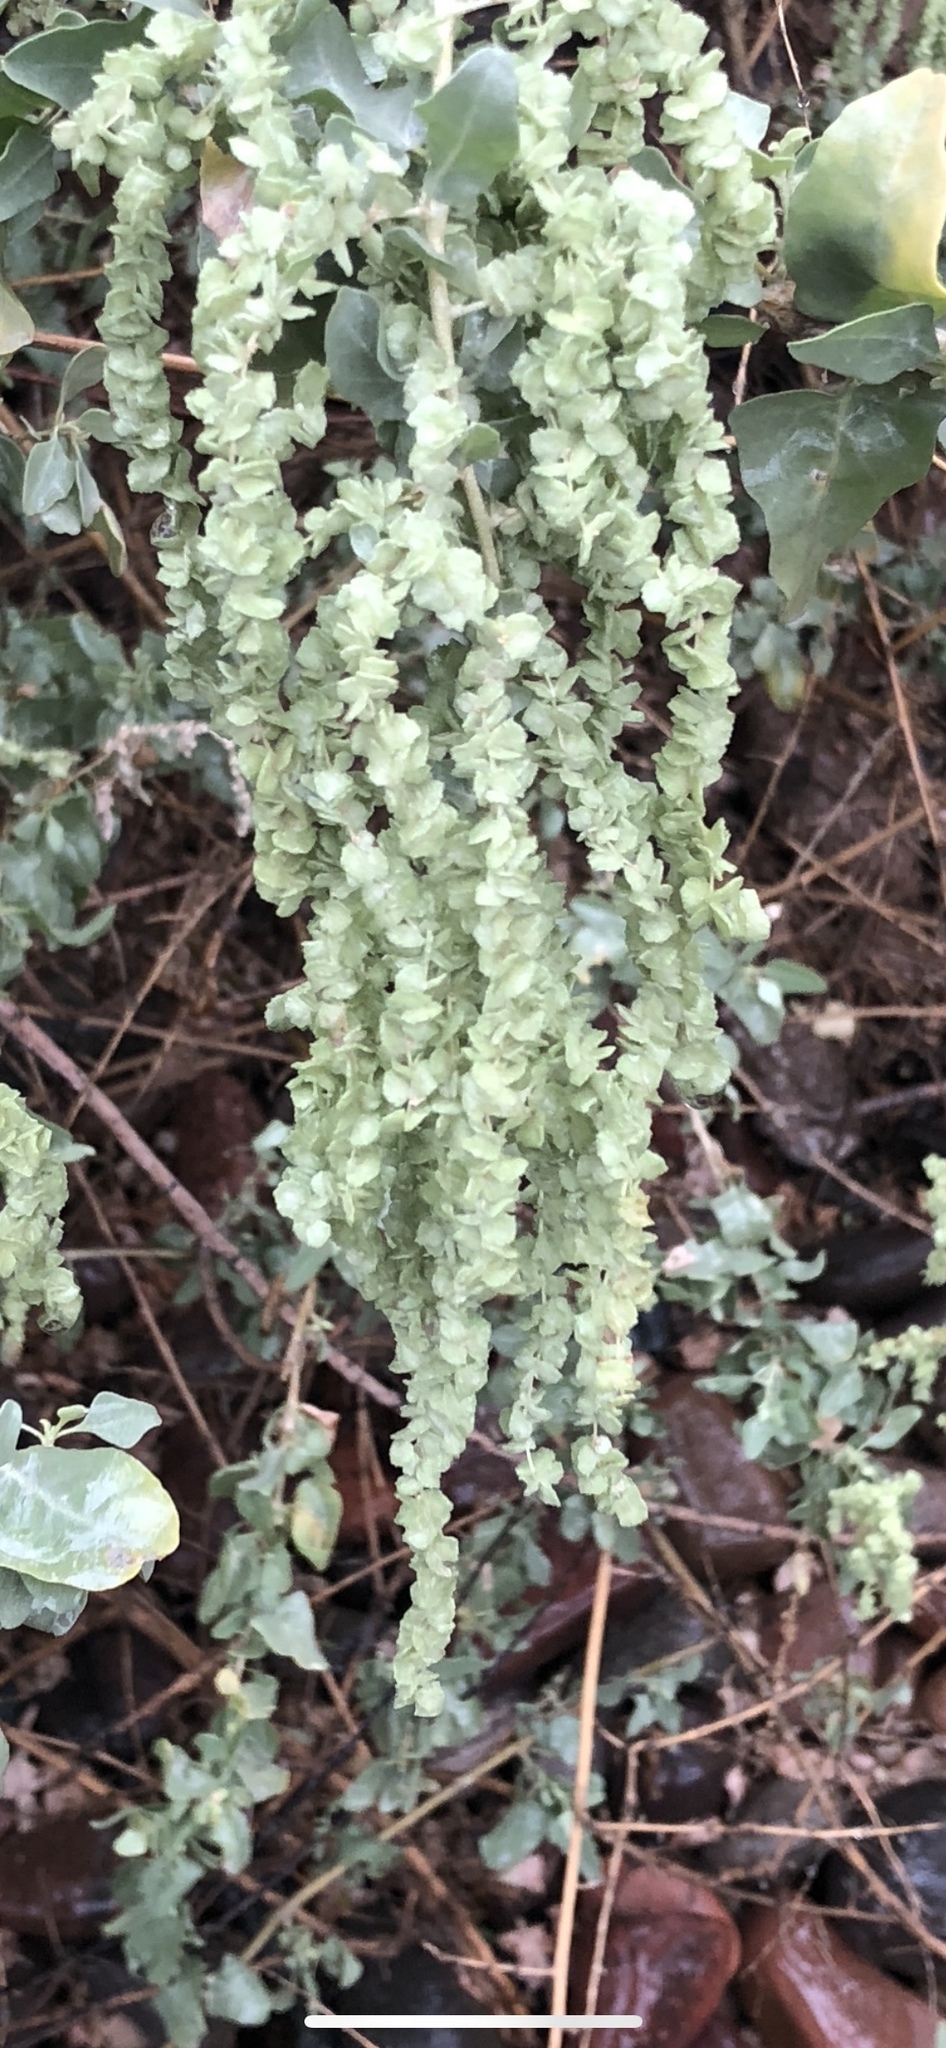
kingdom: Plantae
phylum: Tracheophyta
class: Magnoliopsida
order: Caryophyllales
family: Amaranthaceae
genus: Atriplex
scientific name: Atriplex lentiformis
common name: Big saltbush
